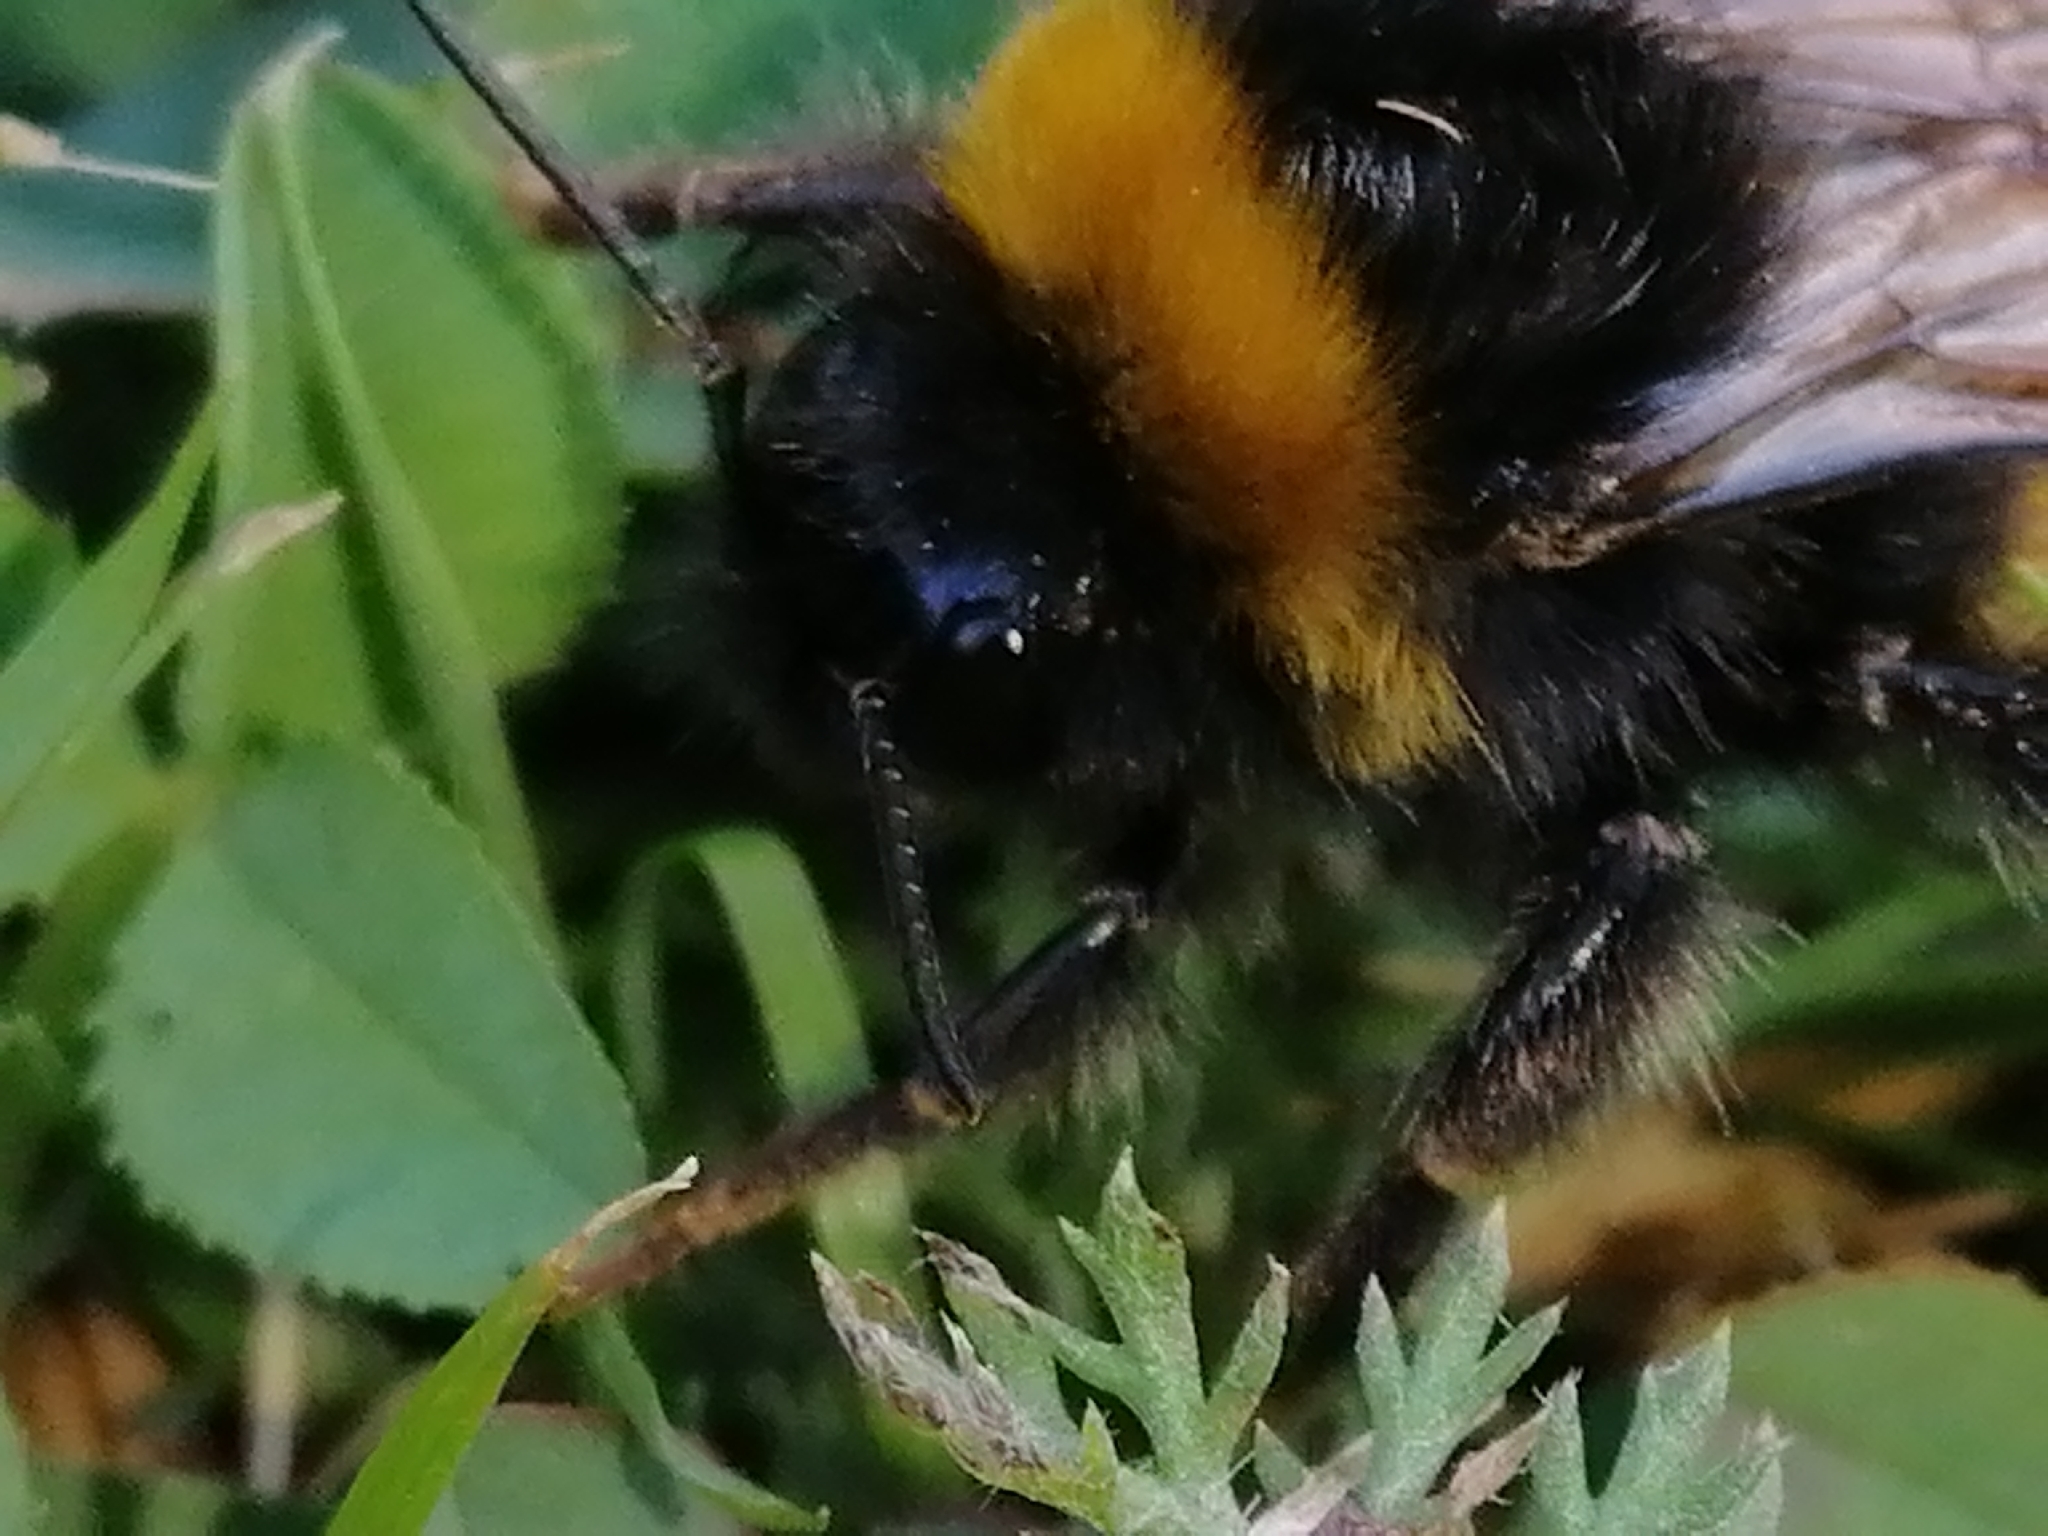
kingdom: Animalia
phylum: Arthropoda
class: Insecta
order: Hymenoptera
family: Apidae
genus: Bombus
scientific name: Bombus terrestris
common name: Buff-tailed bumblebee
